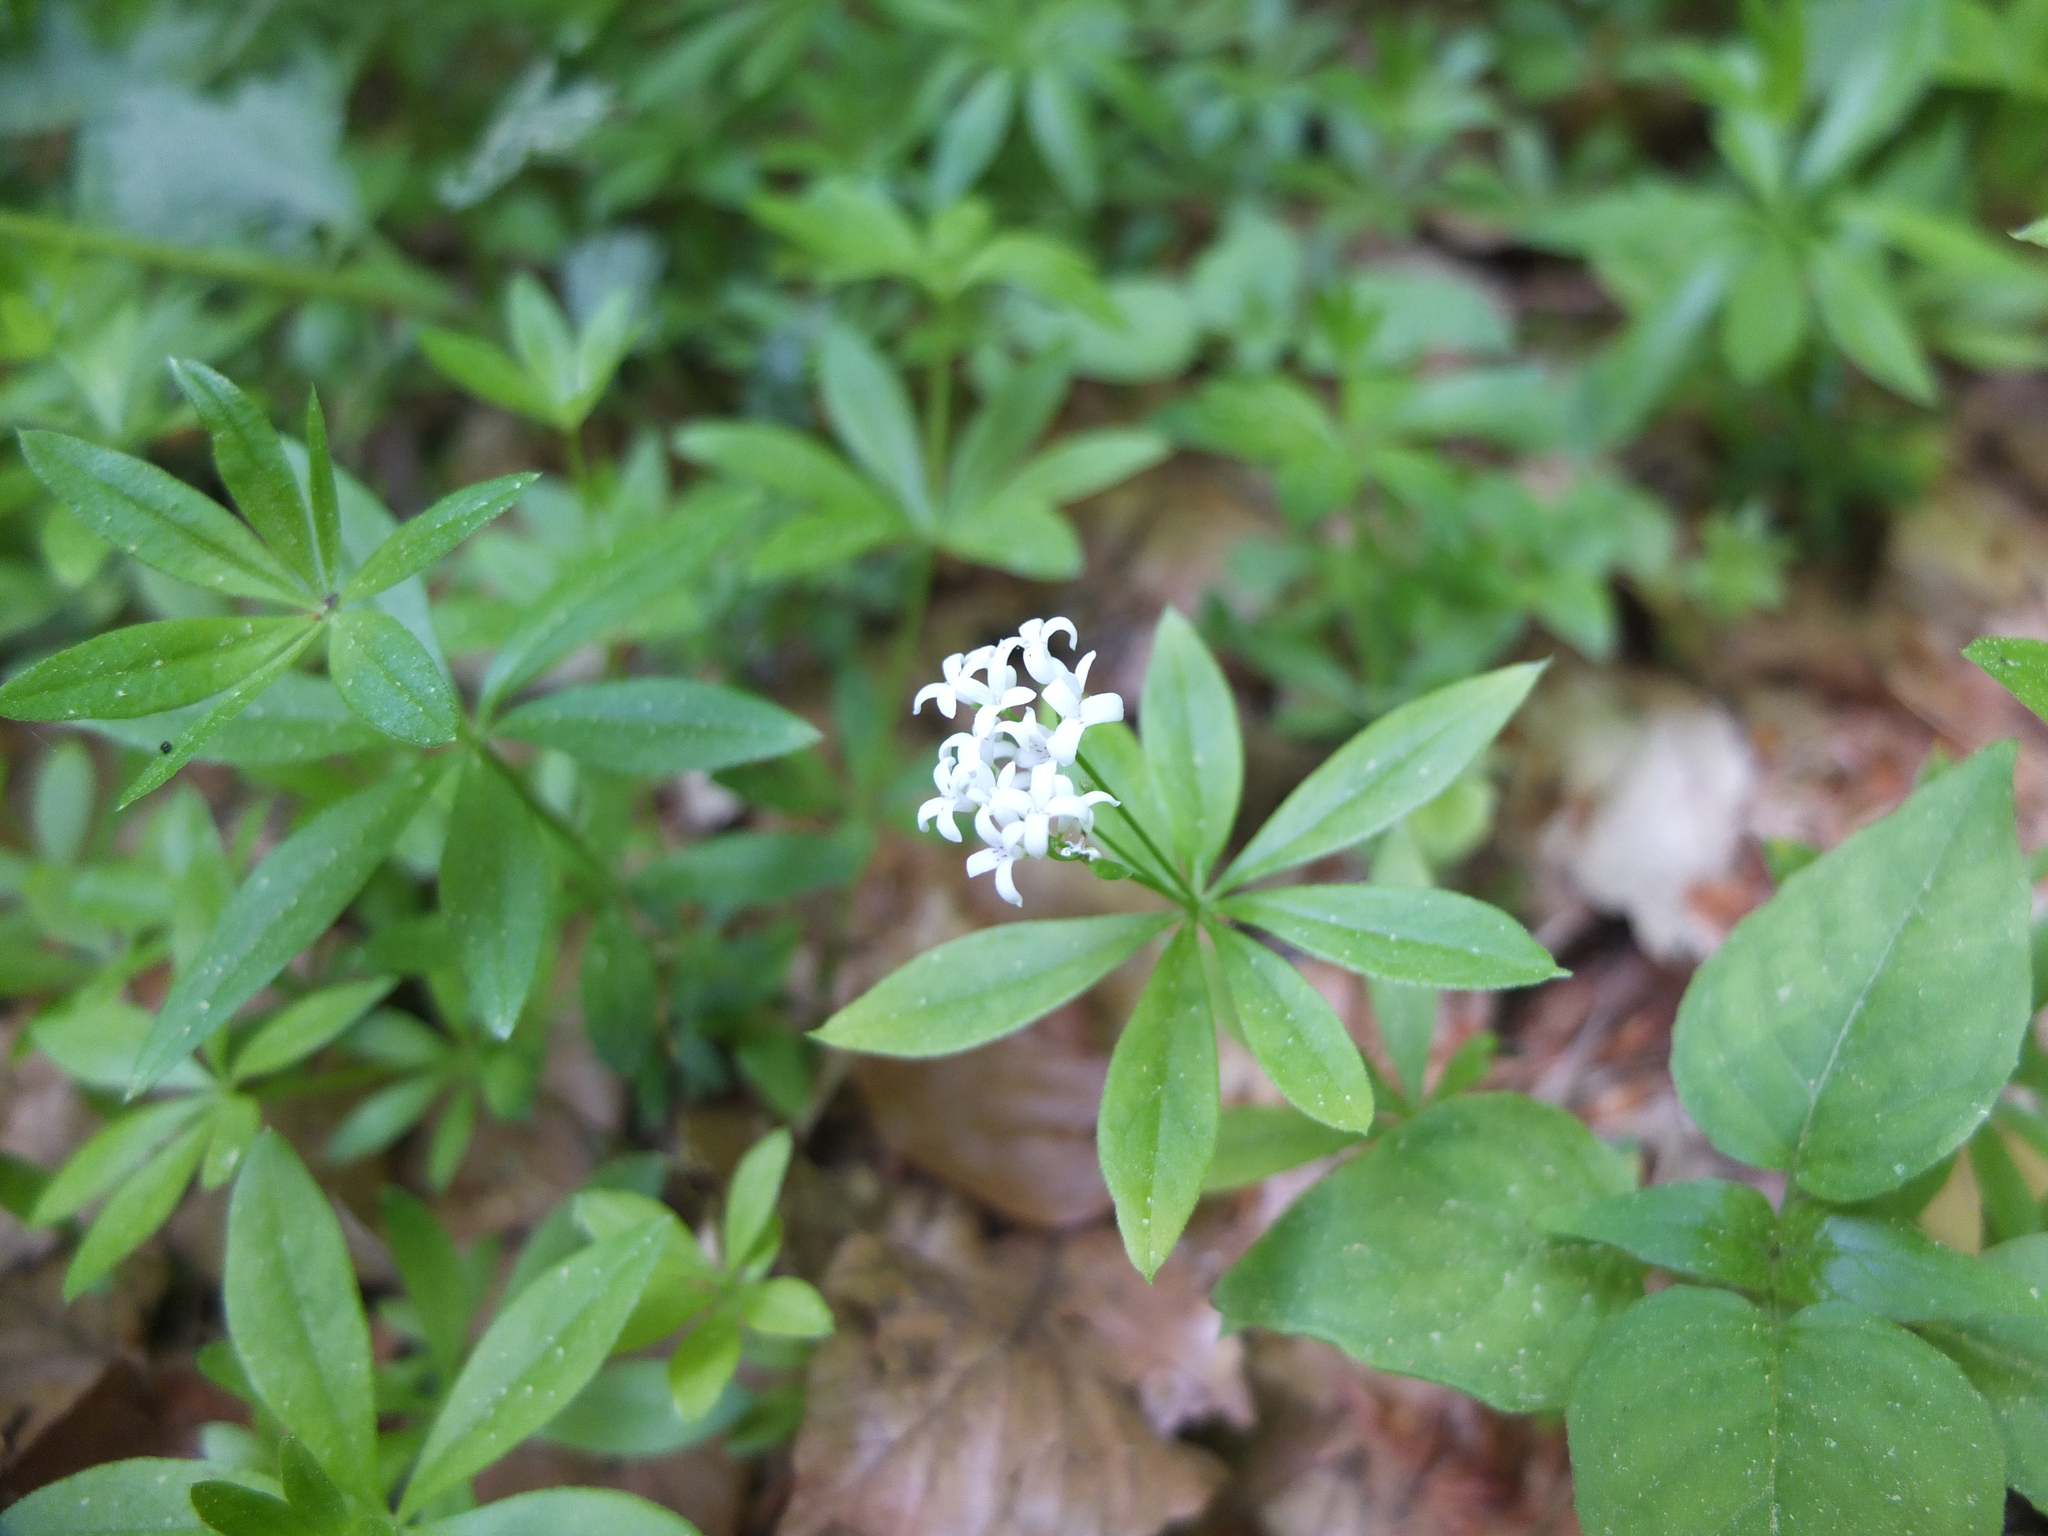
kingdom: Plantae
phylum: Tracheophyta
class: Magnoliopsida
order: Gentianales
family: Rubiaceae
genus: Galium
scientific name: Galium odoratum
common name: Sweet woodruff
